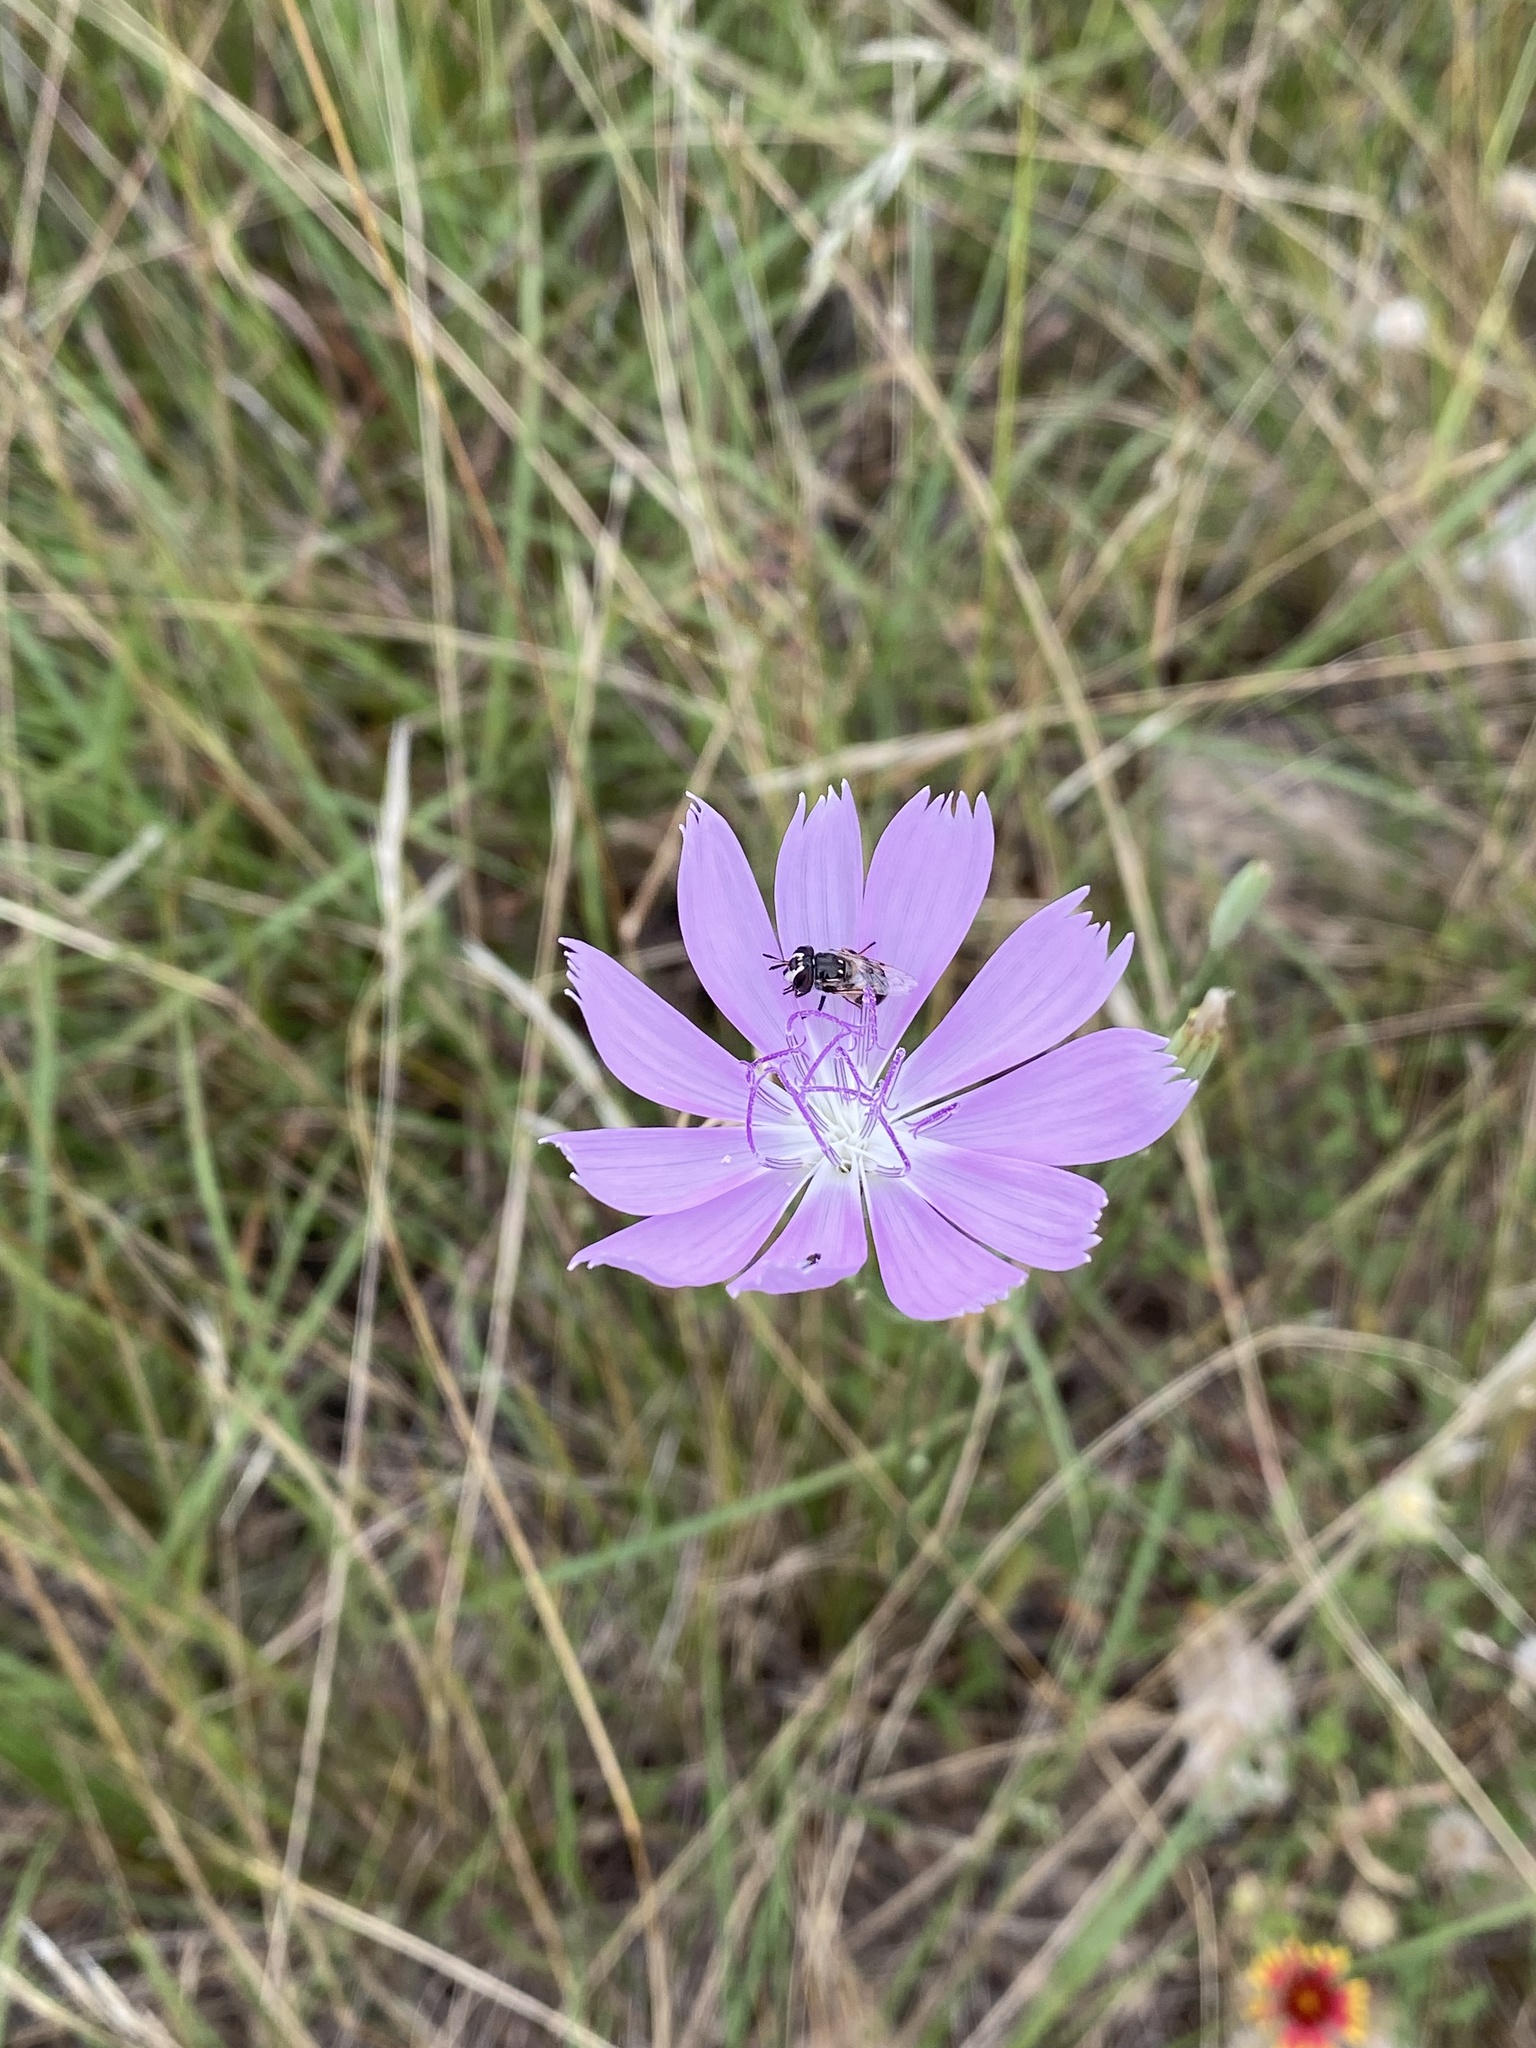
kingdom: Plantae
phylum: Tracheophyta
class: Magnoliopsida
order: Asterales
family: Asteraceae
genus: Lygodesmia
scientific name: Lygodesmia texana
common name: Texas skeleton-plant
